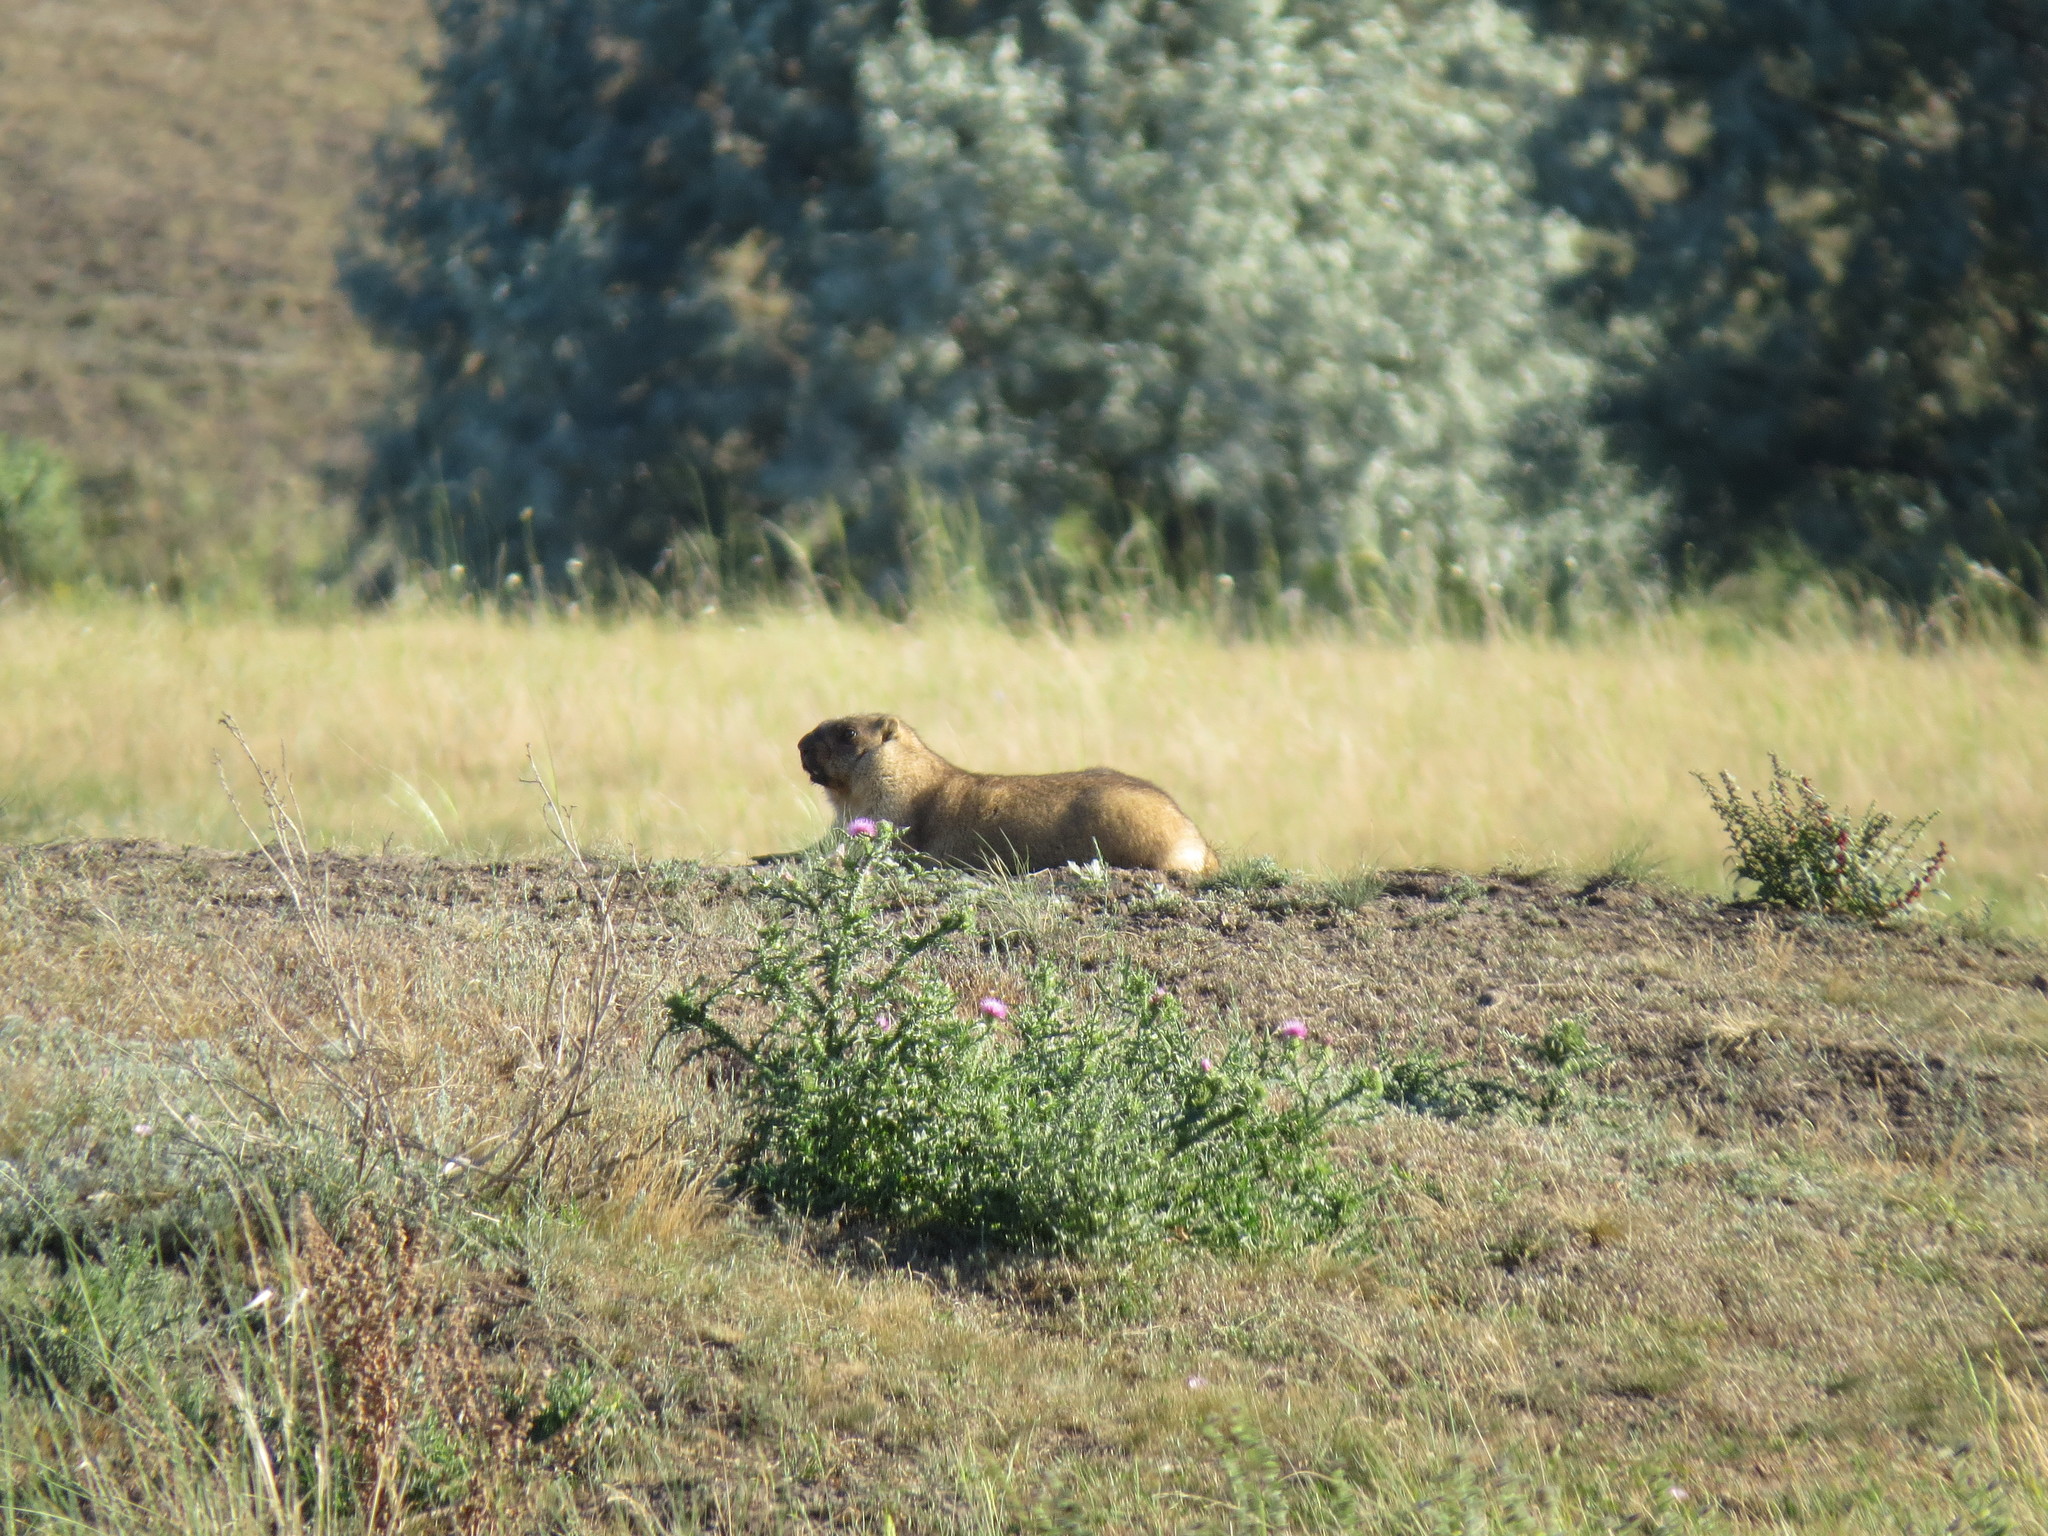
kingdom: Animalia
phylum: Chordata
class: Mammalia
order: Rodentia
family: Sciuridae
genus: Marmota
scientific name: Marmota bobak
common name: Bobak marmot
